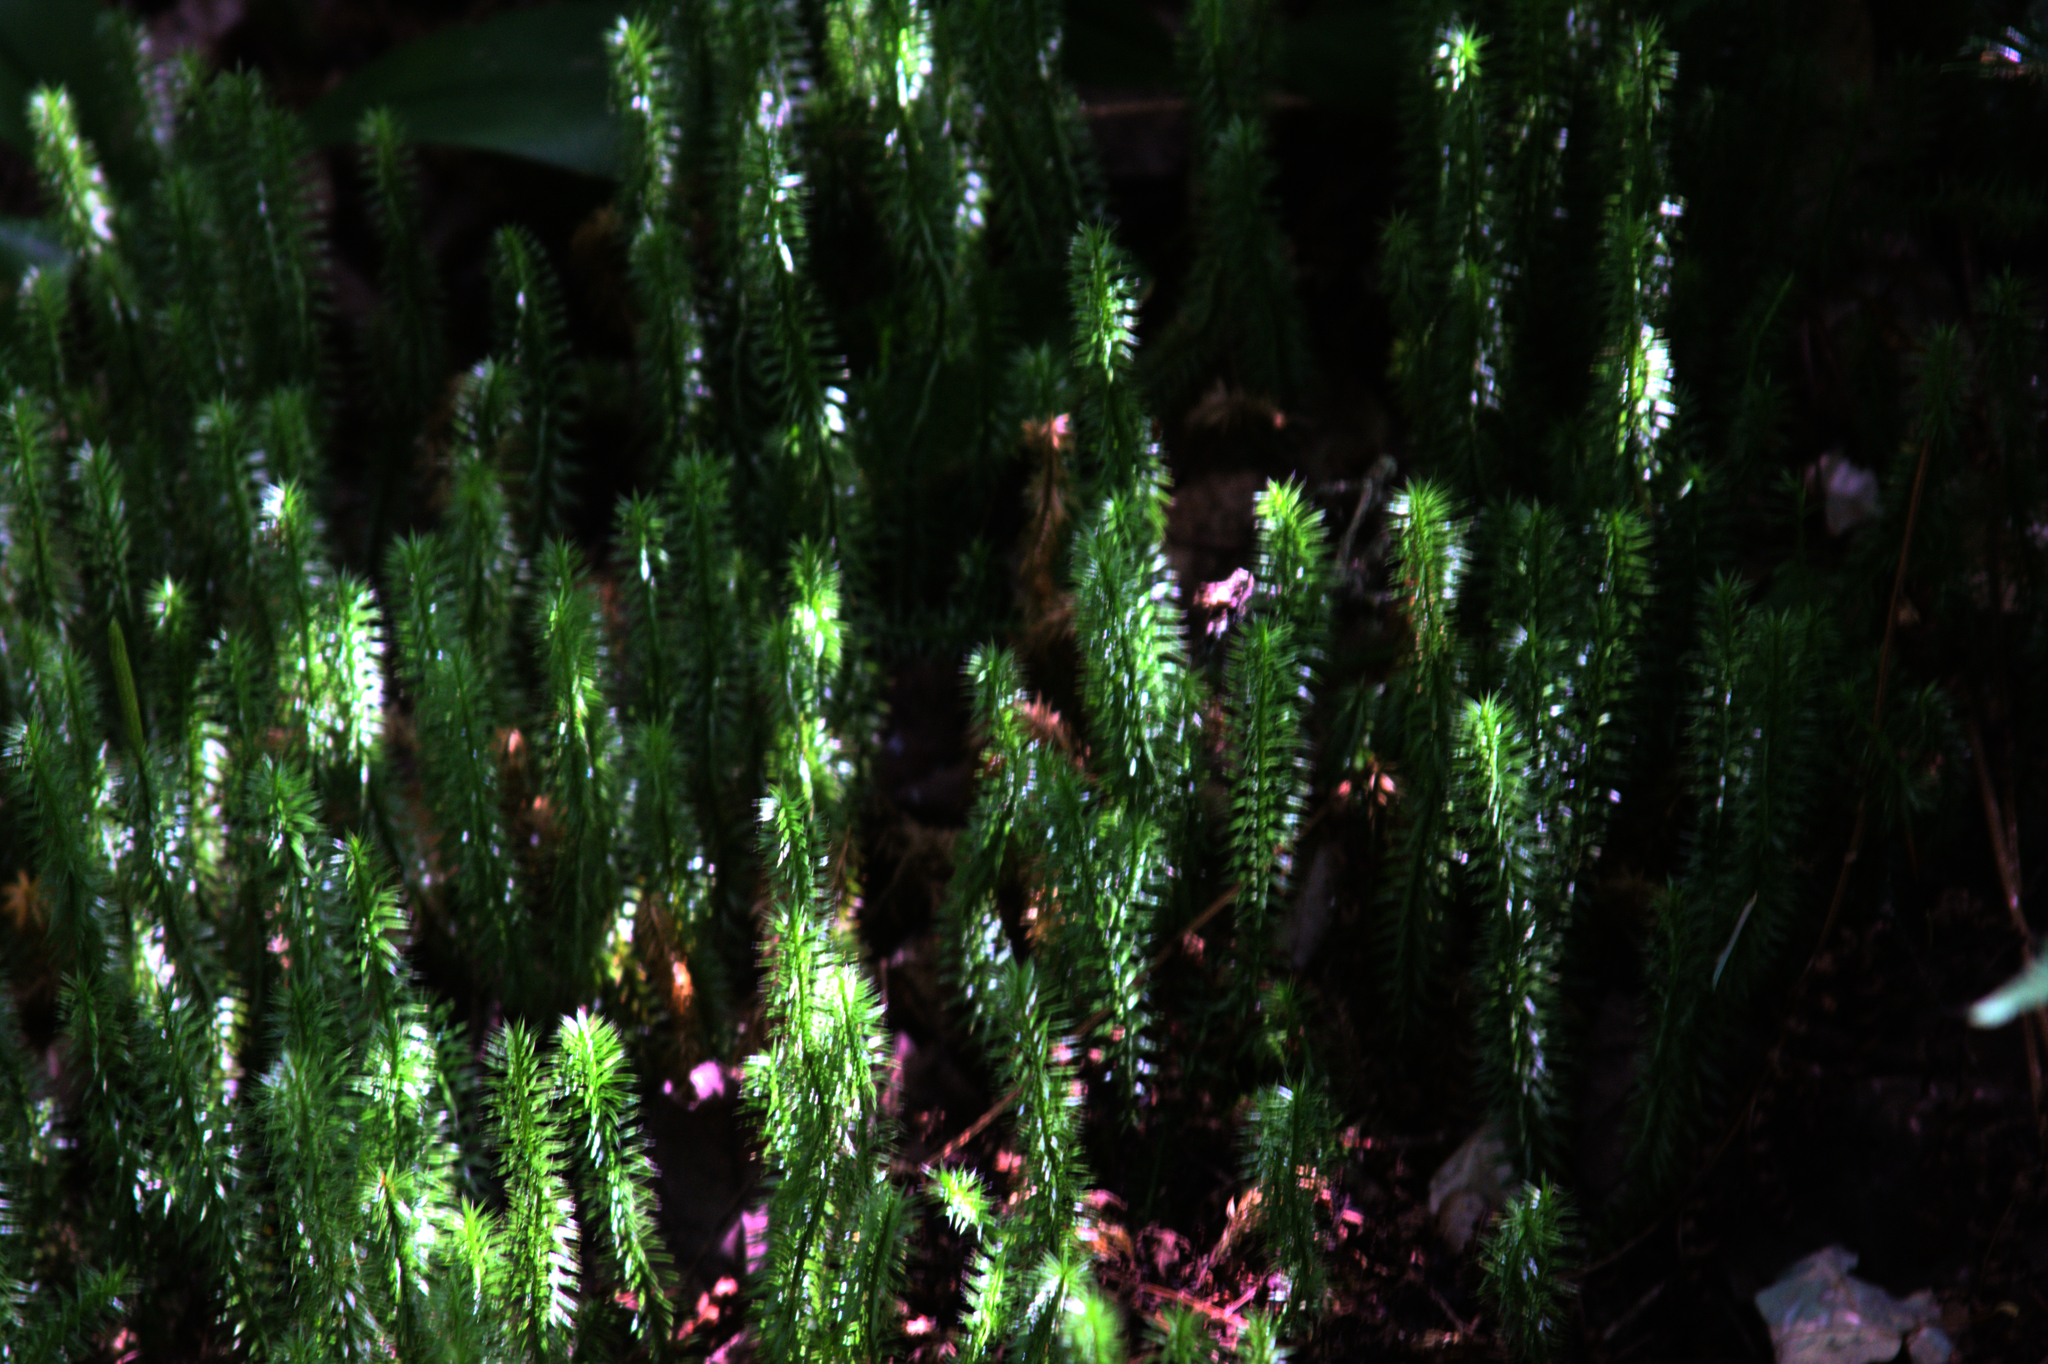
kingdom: Plantae
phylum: Tracheophyta
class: Lycopodiopsida
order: Lycopodiales
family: Lycopodiaceae
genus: Spinulum
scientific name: Spinulum annotinum
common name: Interrupted club-moss
